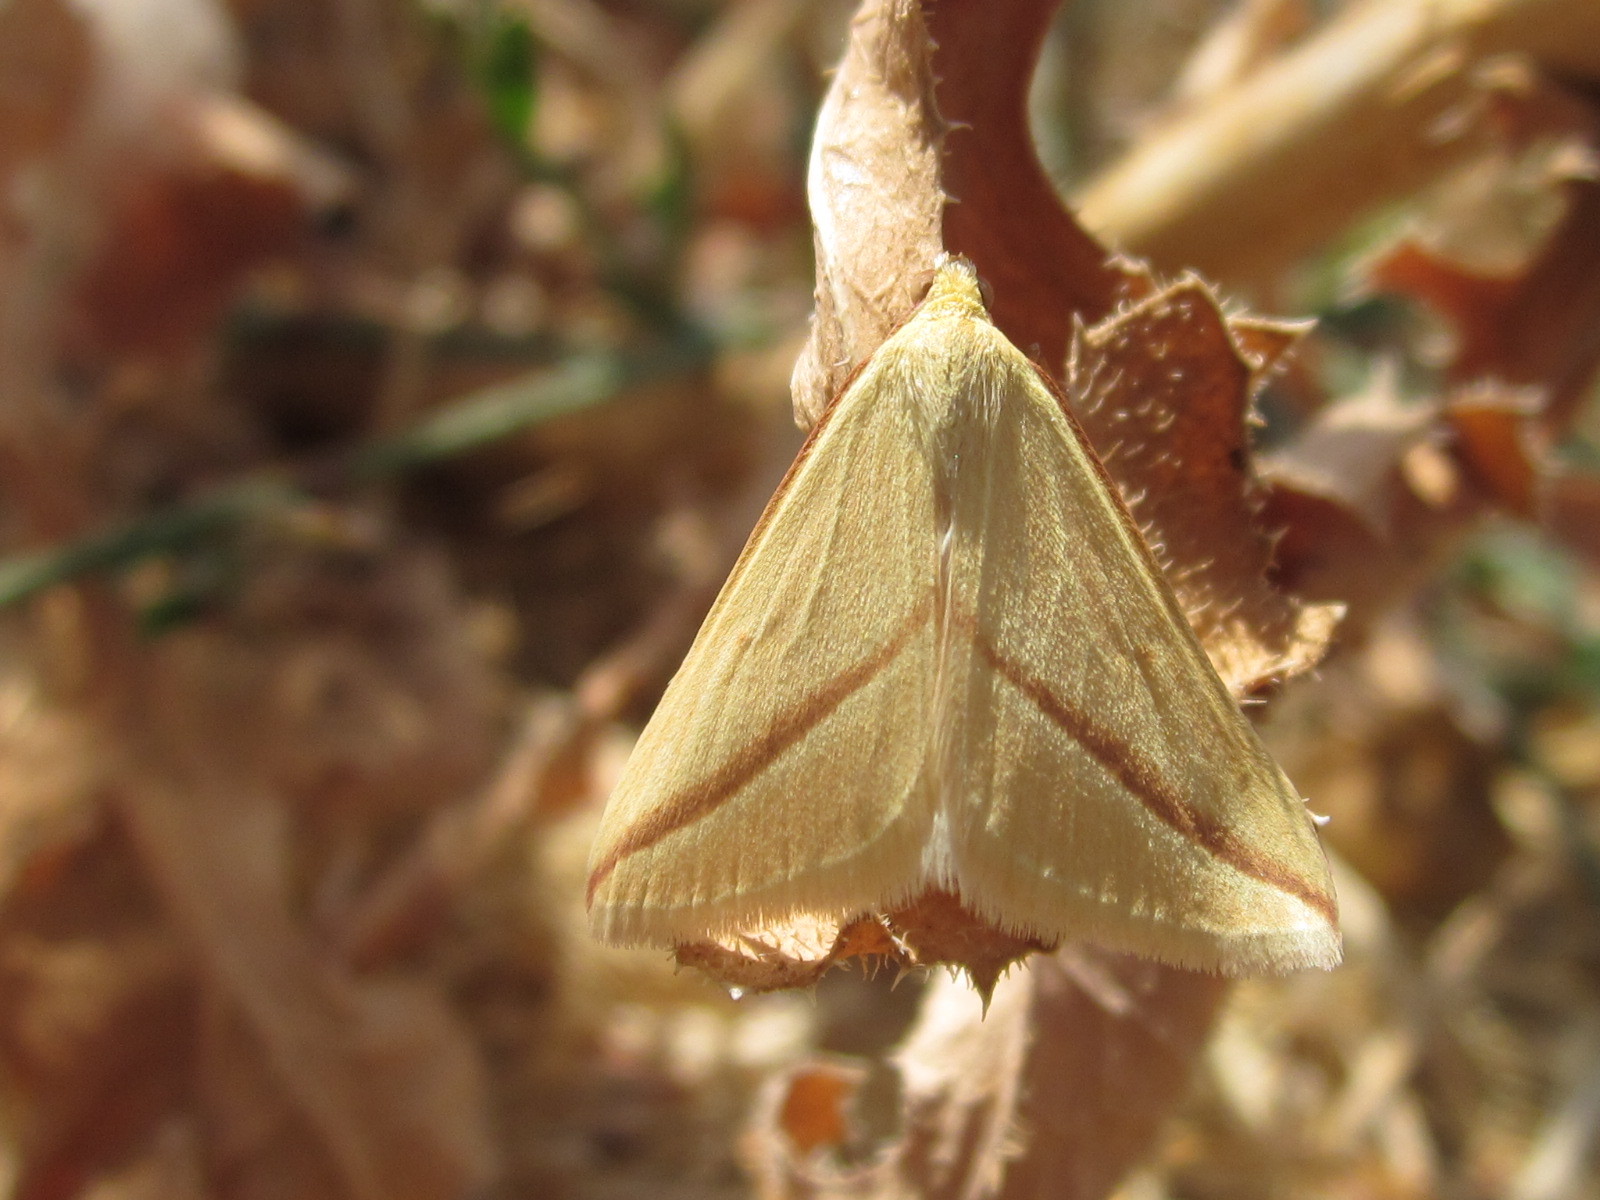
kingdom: Animalia
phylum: Arthropoda
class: Insecta
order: Lepidoptera
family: Geometridae
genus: Rhodometra
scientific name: Rhodometra sacraria
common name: Vestal
